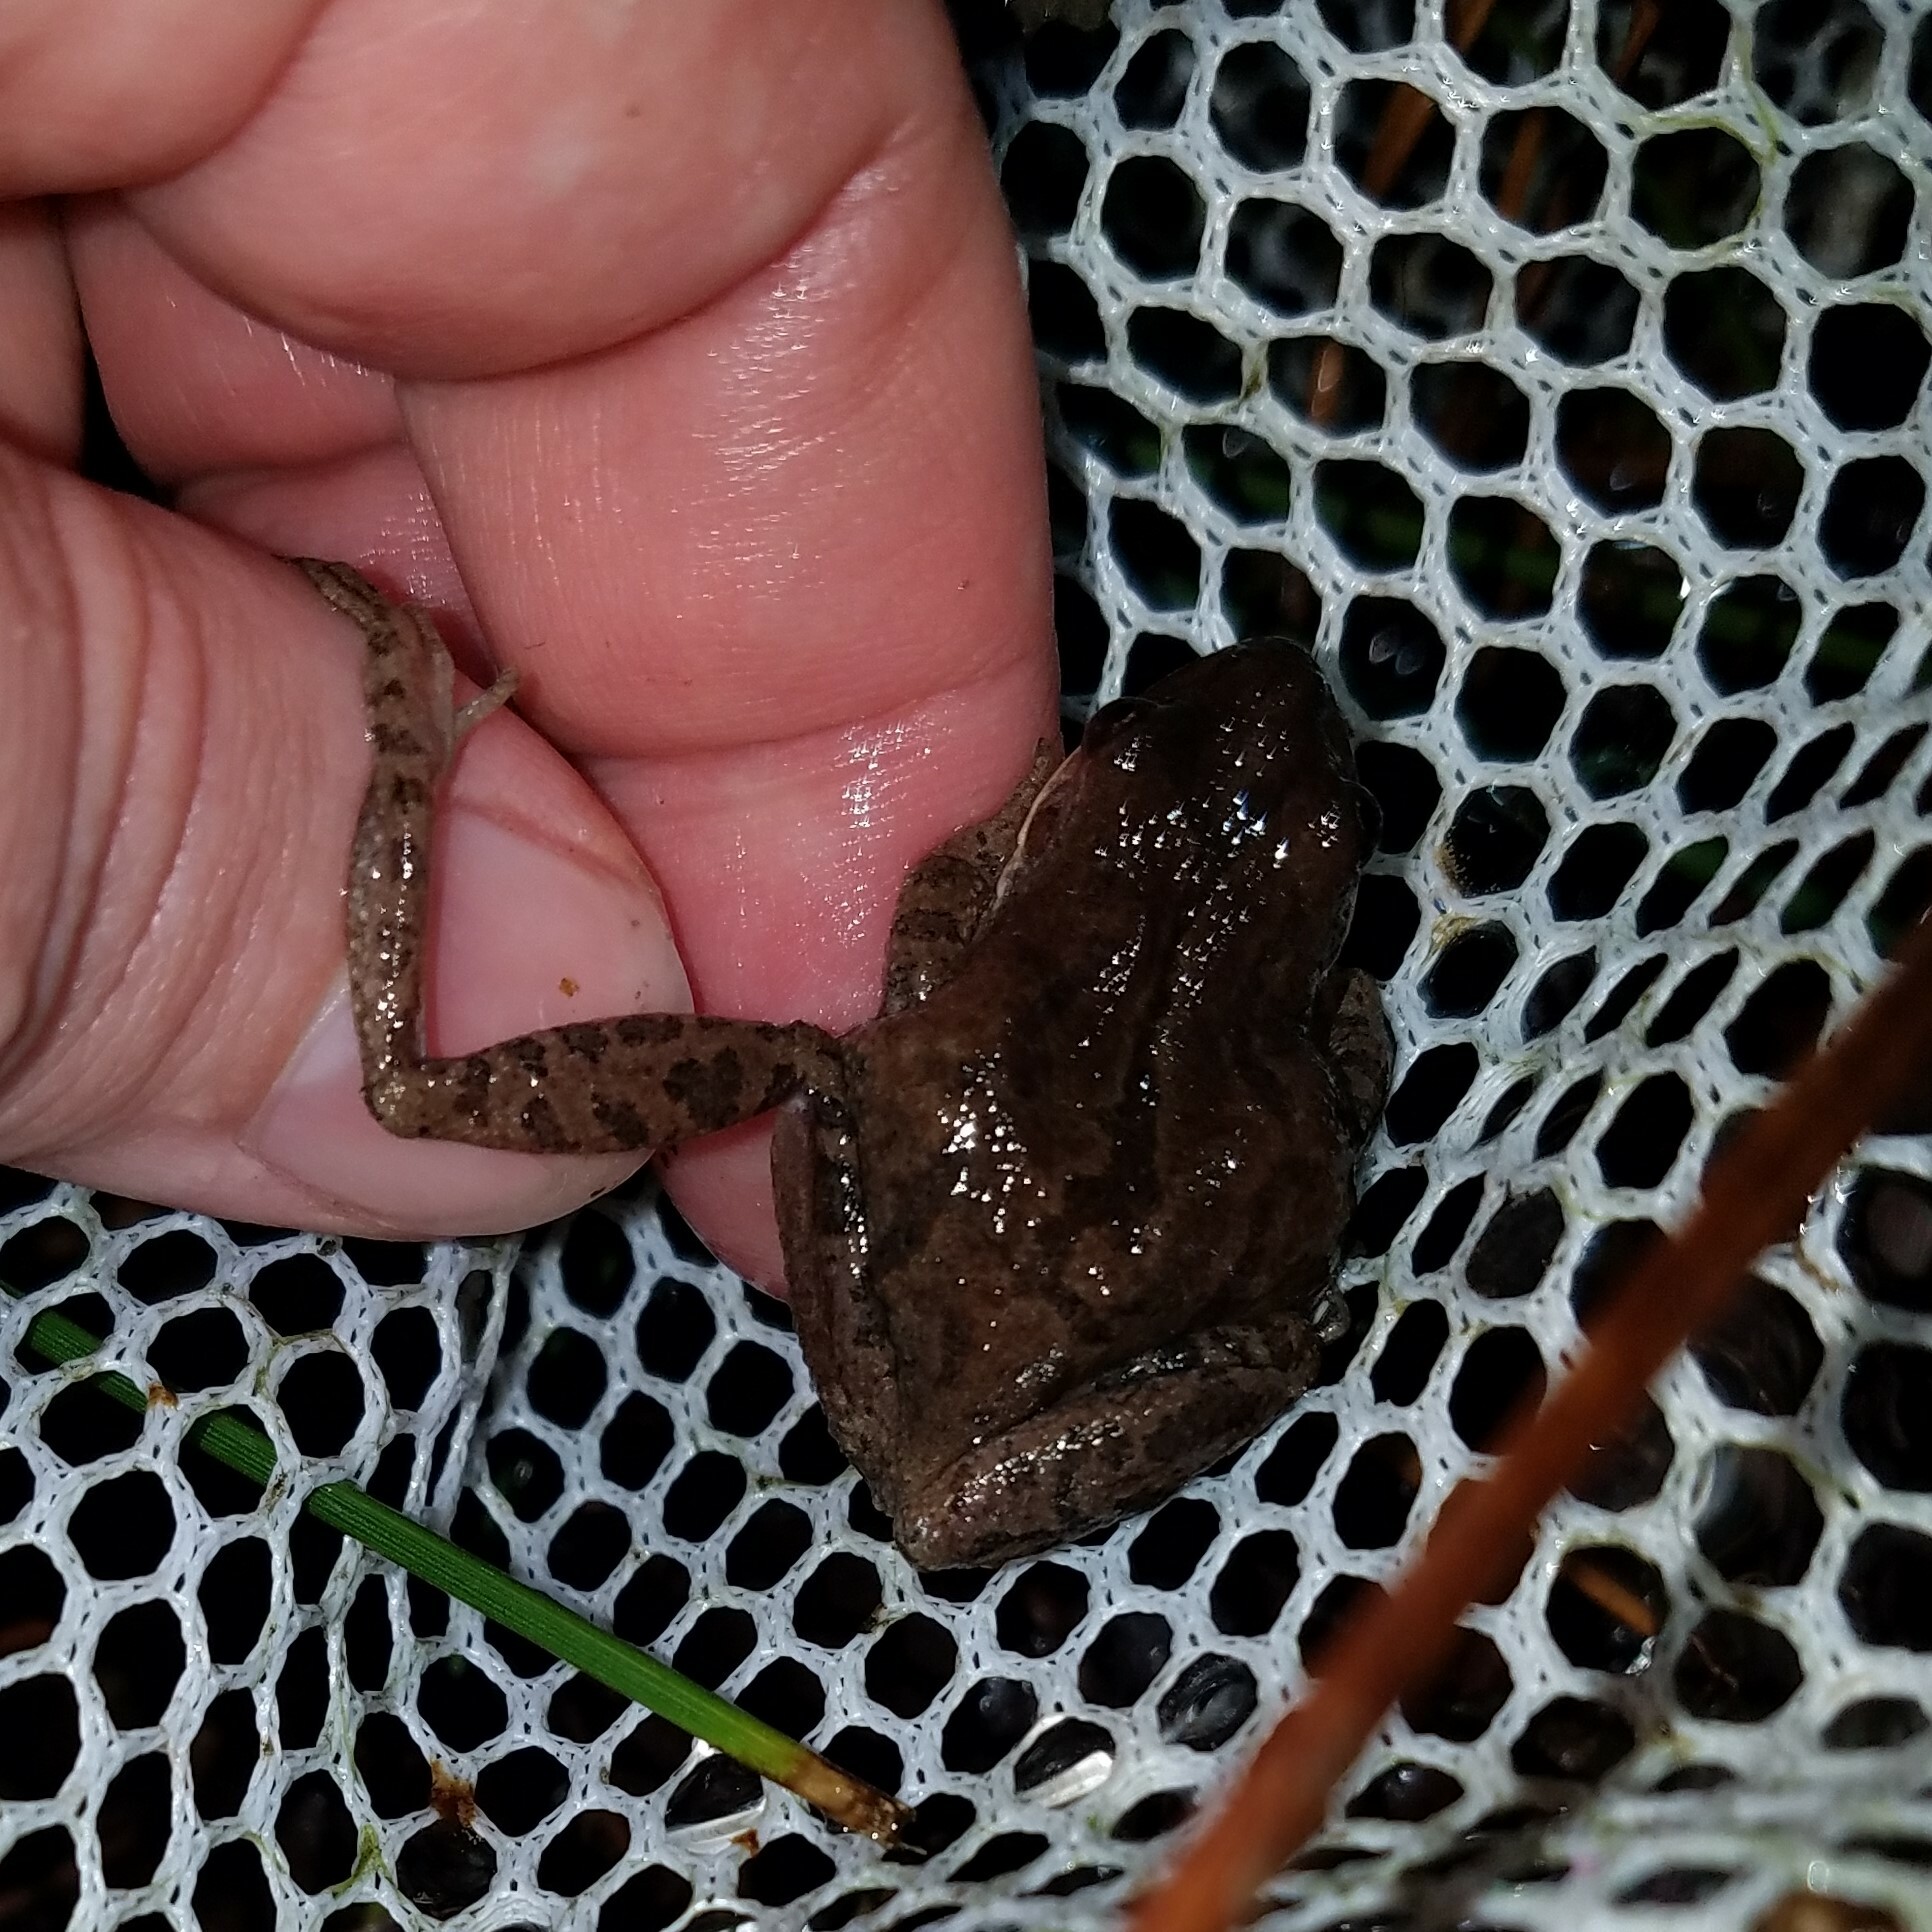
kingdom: Animalia
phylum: Chordata
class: Amphibia
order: Anura
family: Hylidae
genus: Pseudacris
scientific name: Pseudacris feriarum
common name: Upland chorus frog
